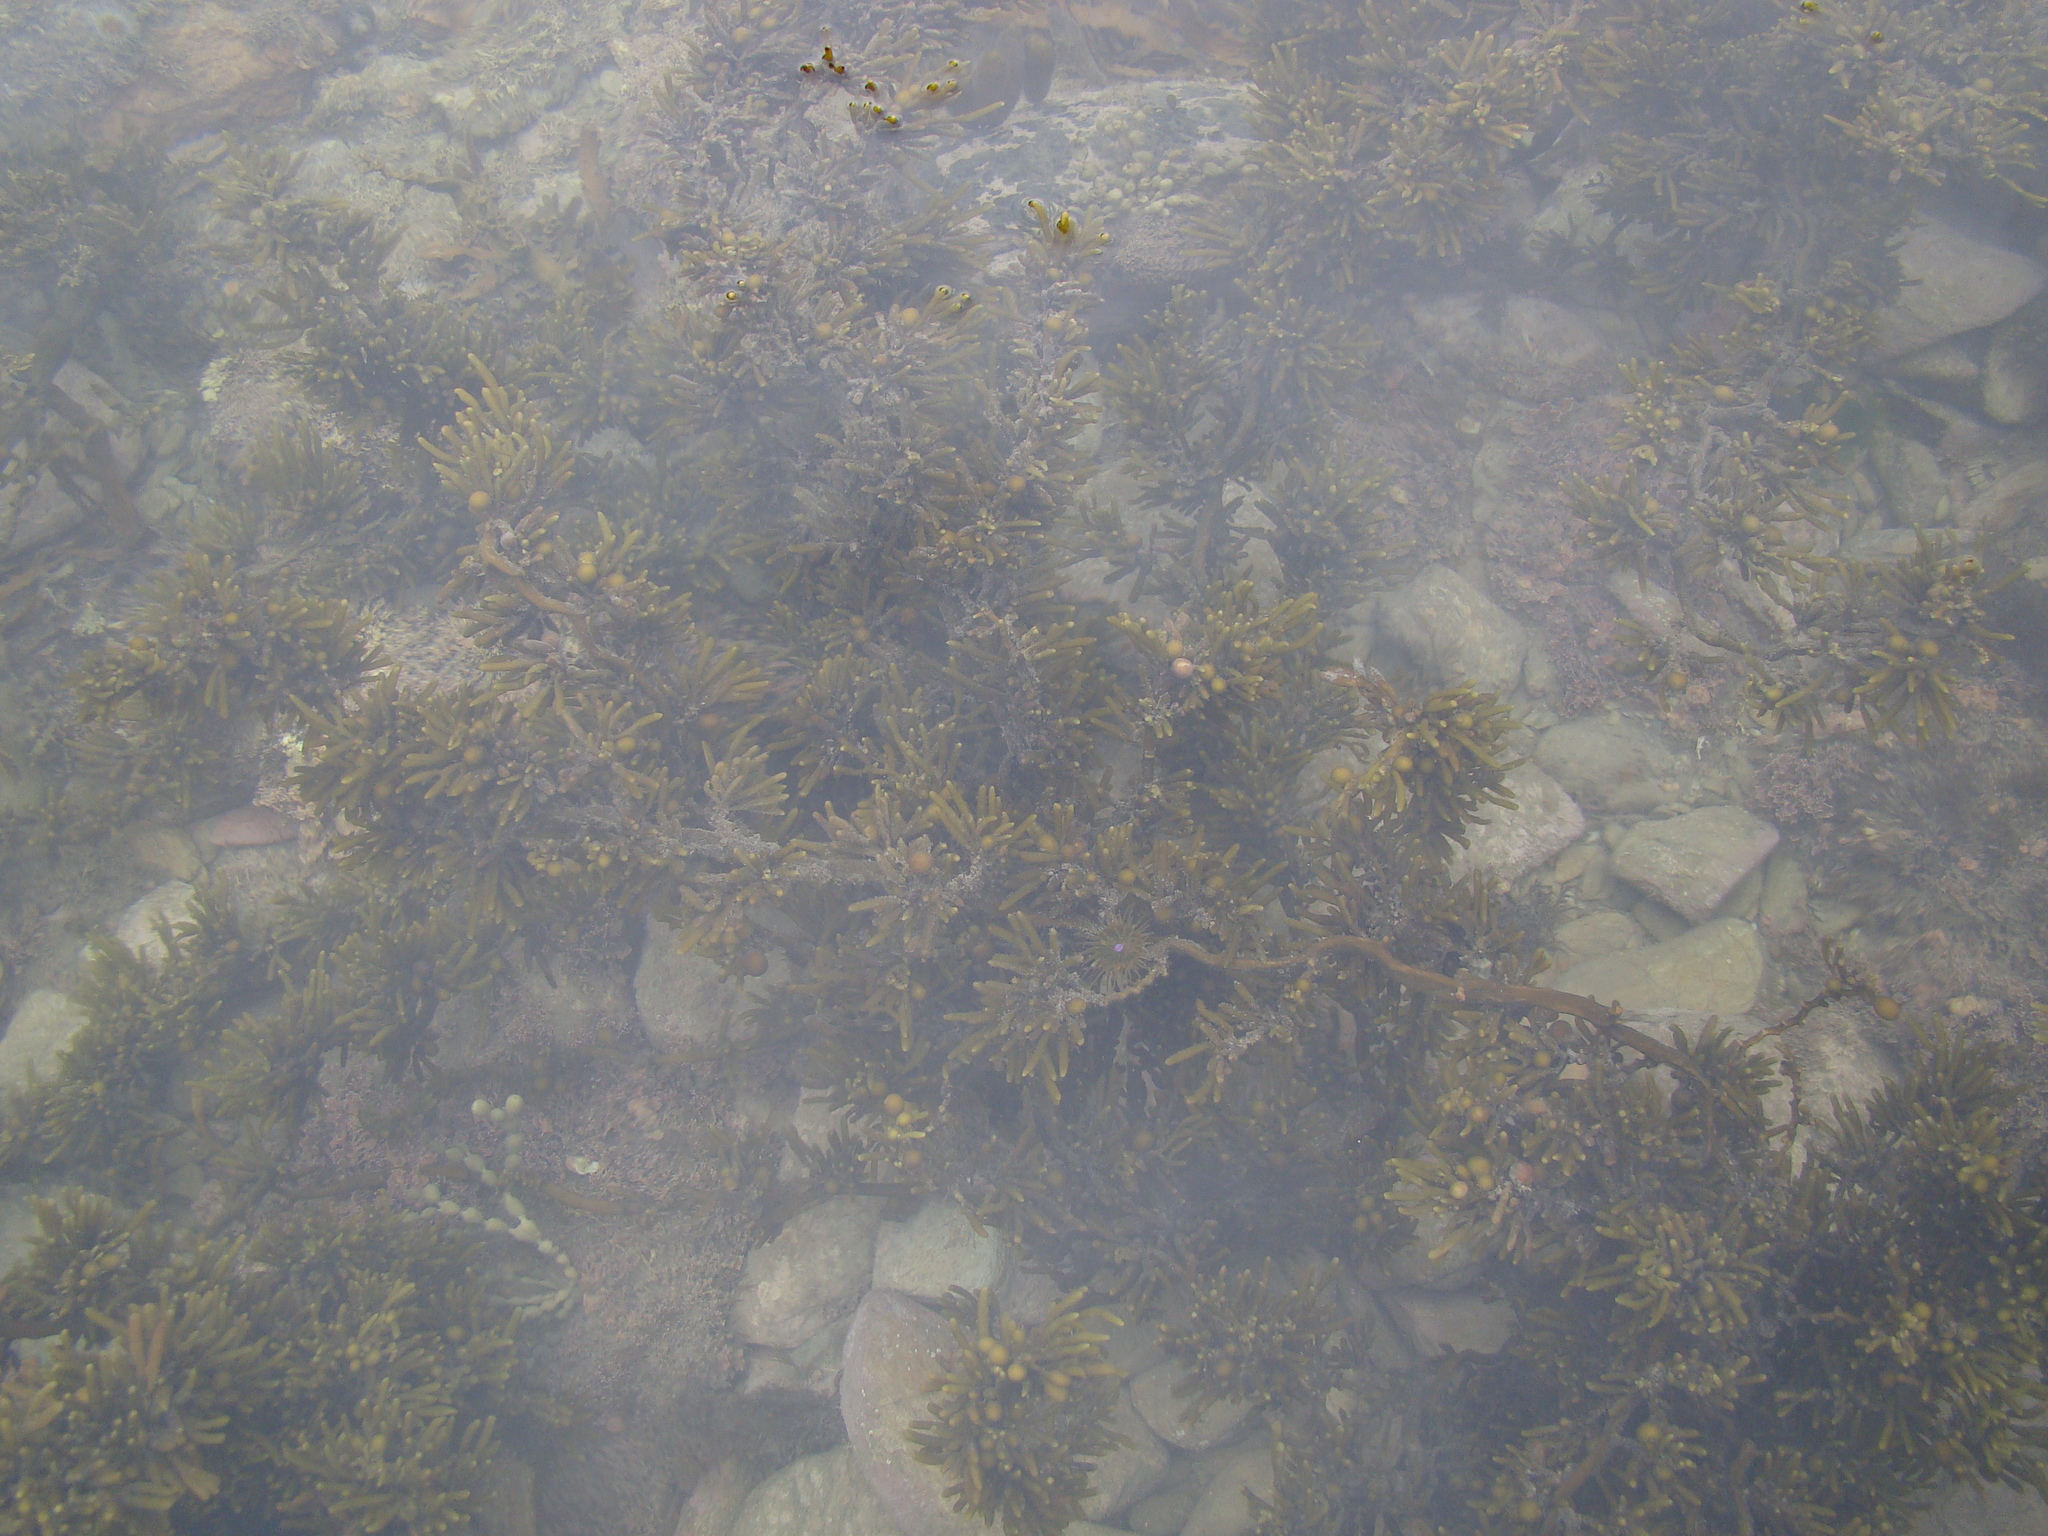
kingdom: Chromista
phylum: Ochrophyta
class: Phaeophyceae
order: Fucales
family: Sargassaceae
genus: Cystophora
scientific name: Cystophora torulosa
